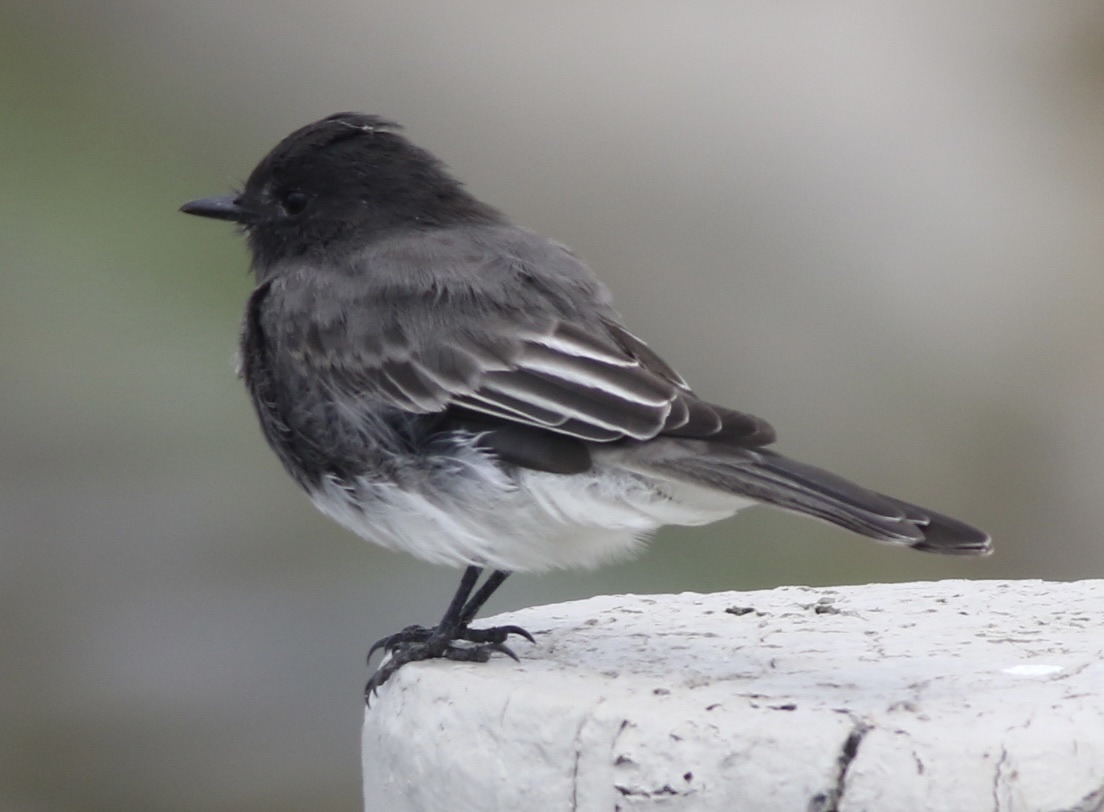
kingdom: Animalia
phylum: Chordata
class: Aves
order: Passeriformes
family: Tyrannidae
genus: Sayornis
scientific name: Sayornis nigricans
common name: Black phoebe
